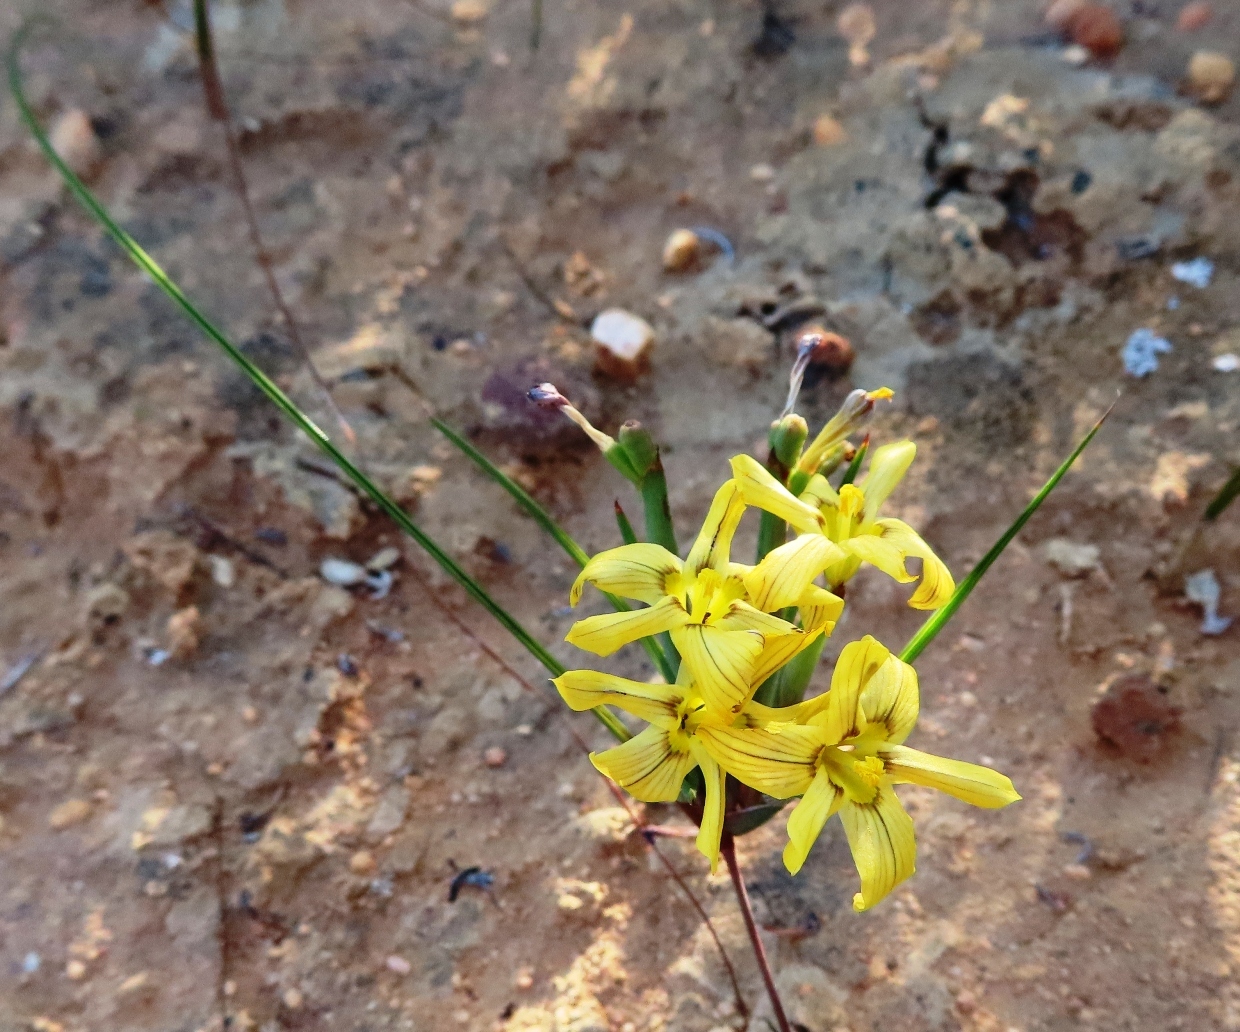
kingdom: Plantae
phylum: Tracheophyta
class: Liliopsida
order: Asparagales
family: Iridaceae
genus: Moraea
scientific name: Moraea maximiliani
